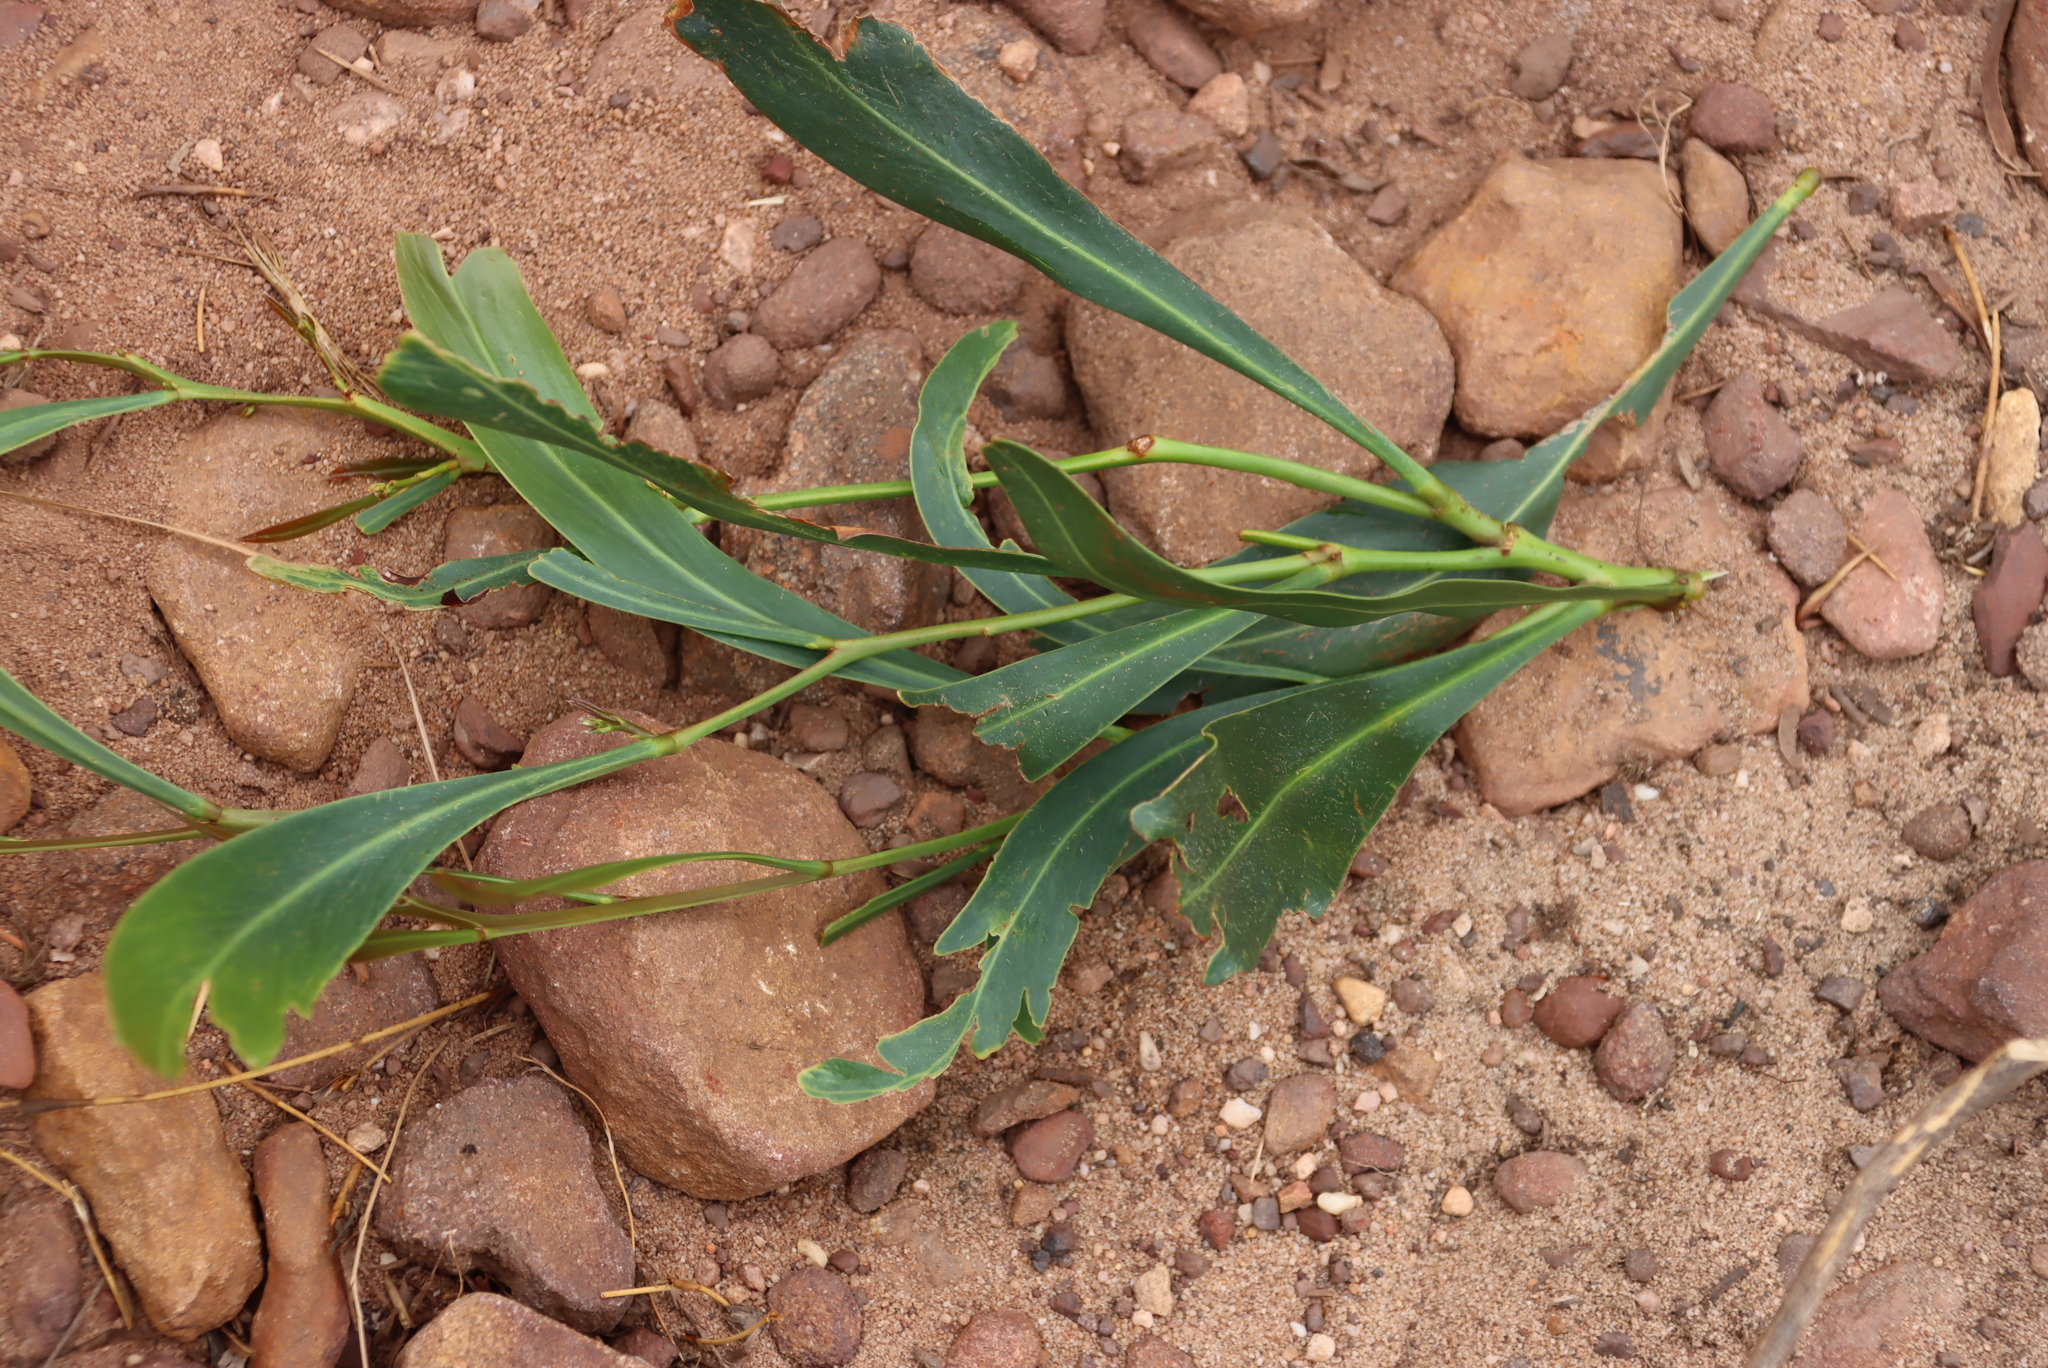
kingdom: Plantae
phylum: Tracheophyta
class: Magnoliopsida
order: Fabales
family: Fabaceae
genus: Acacia
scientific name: Acacia saligna
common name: Orange wattle
